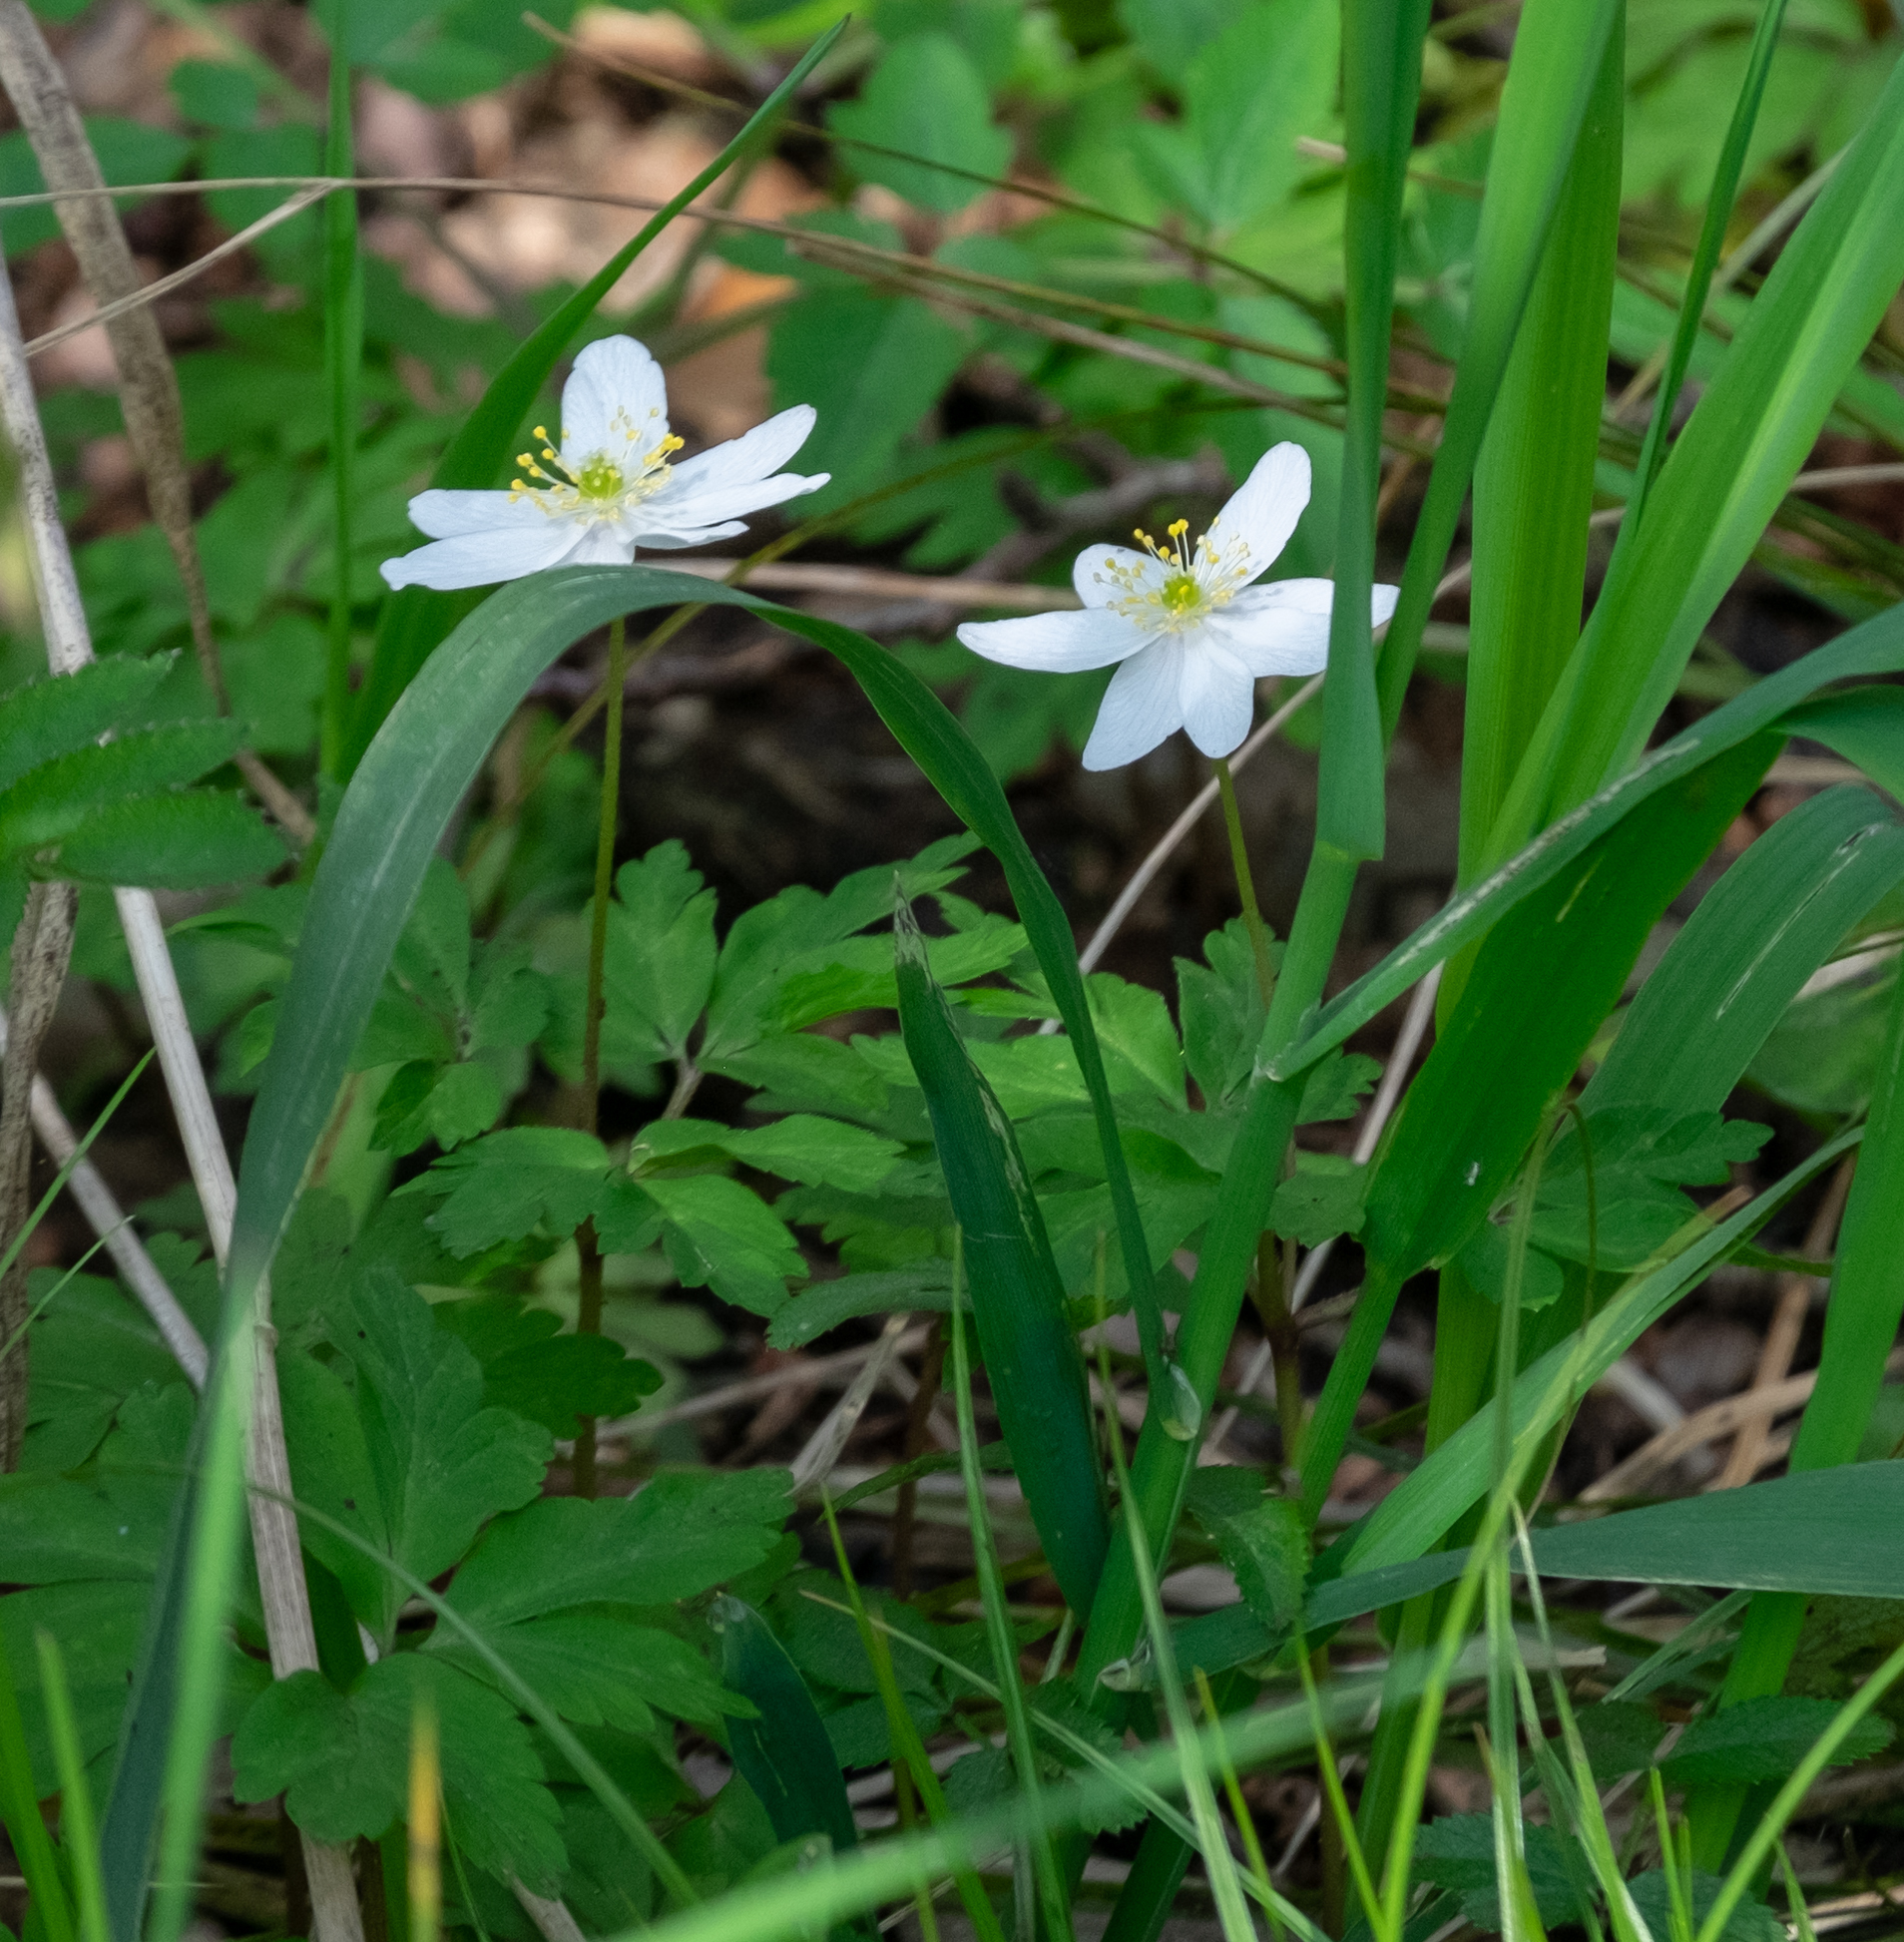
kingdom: Plantae
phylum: Tracheophyta
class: Magnoliopsida
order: Ranunculales
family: Ranunculaceae
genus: Anemone
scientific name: Anemone nemorosa
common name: Wood anemone
